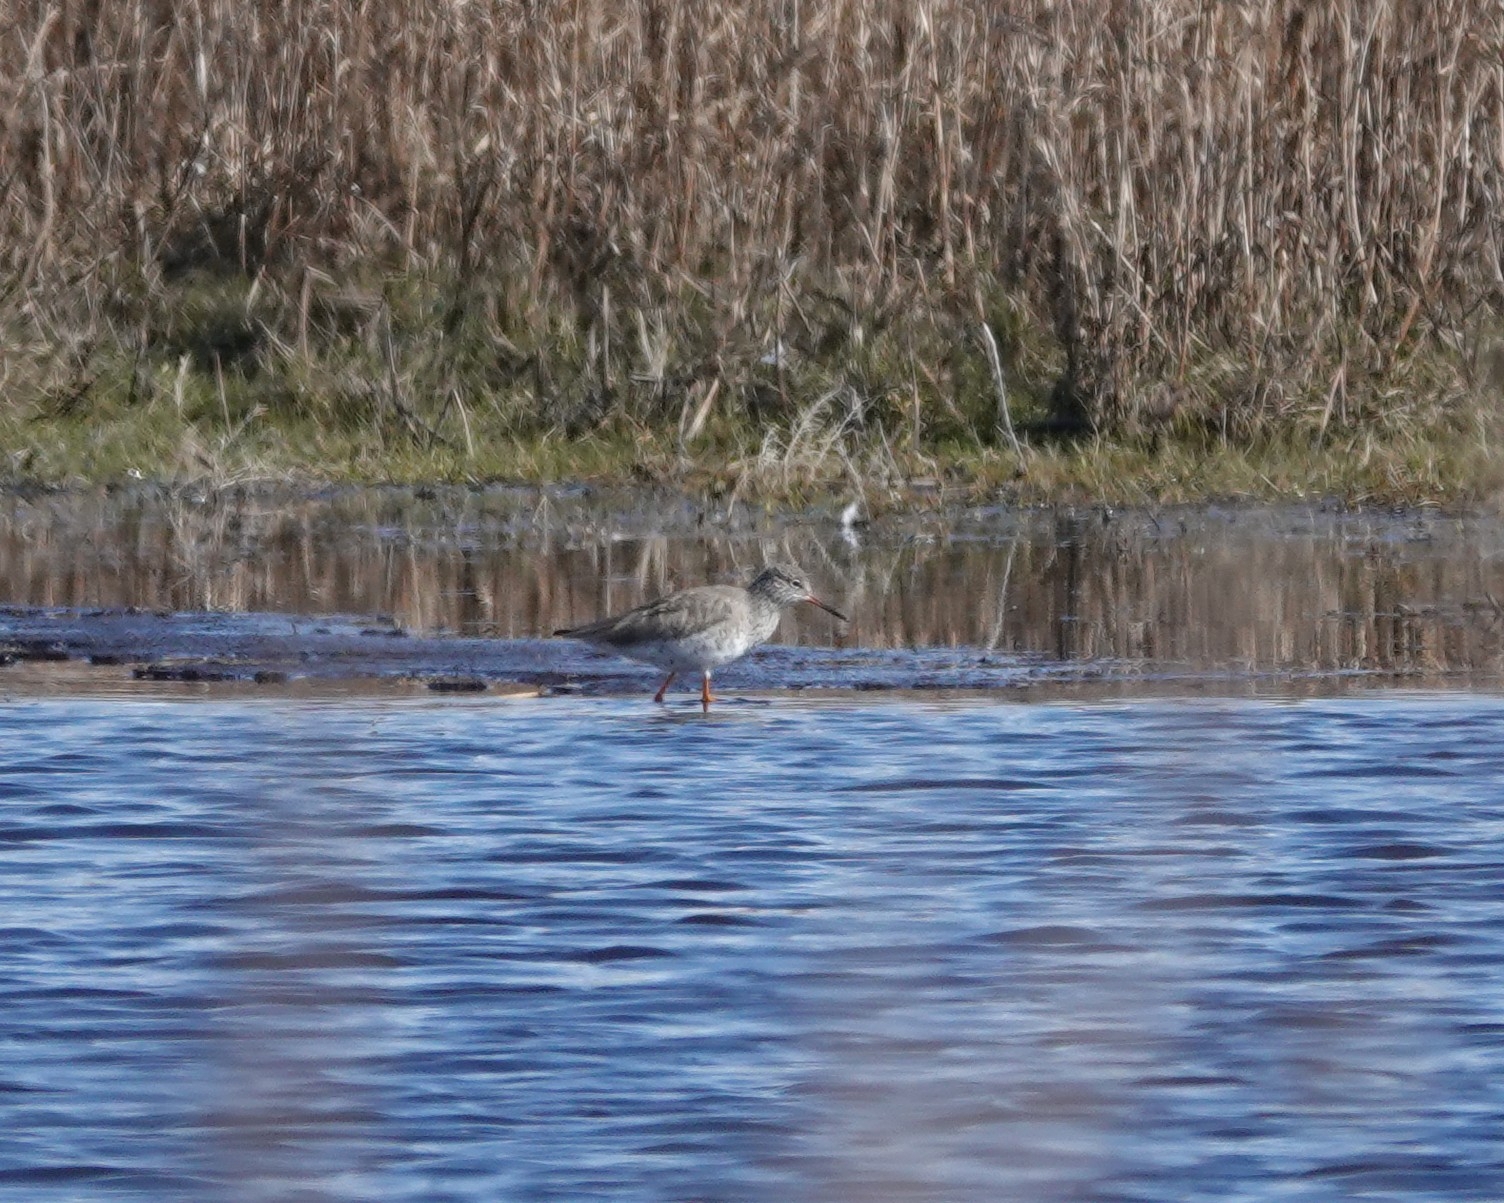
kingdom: Animalia
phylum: Chordata
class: Aves
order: Charadriiformes
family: Scolopacidae
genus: Tringa
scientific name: Tringa totanus
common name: Common redshank
